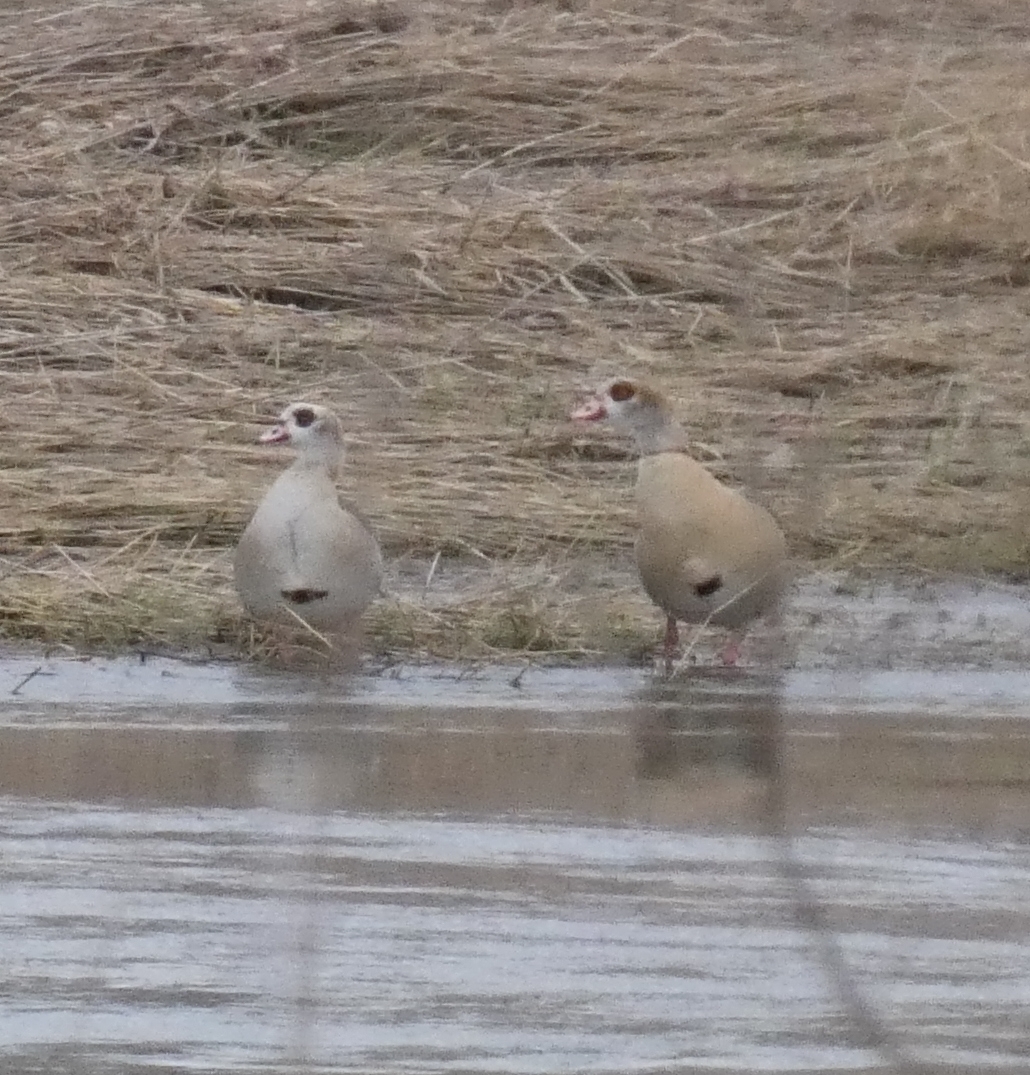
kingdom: Animalia
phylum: Chordata
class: Aves
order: Anseriformes
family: Anatidae
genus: Alopochen
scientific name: Alopochen aegyptiaca
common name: Egyptian goose
